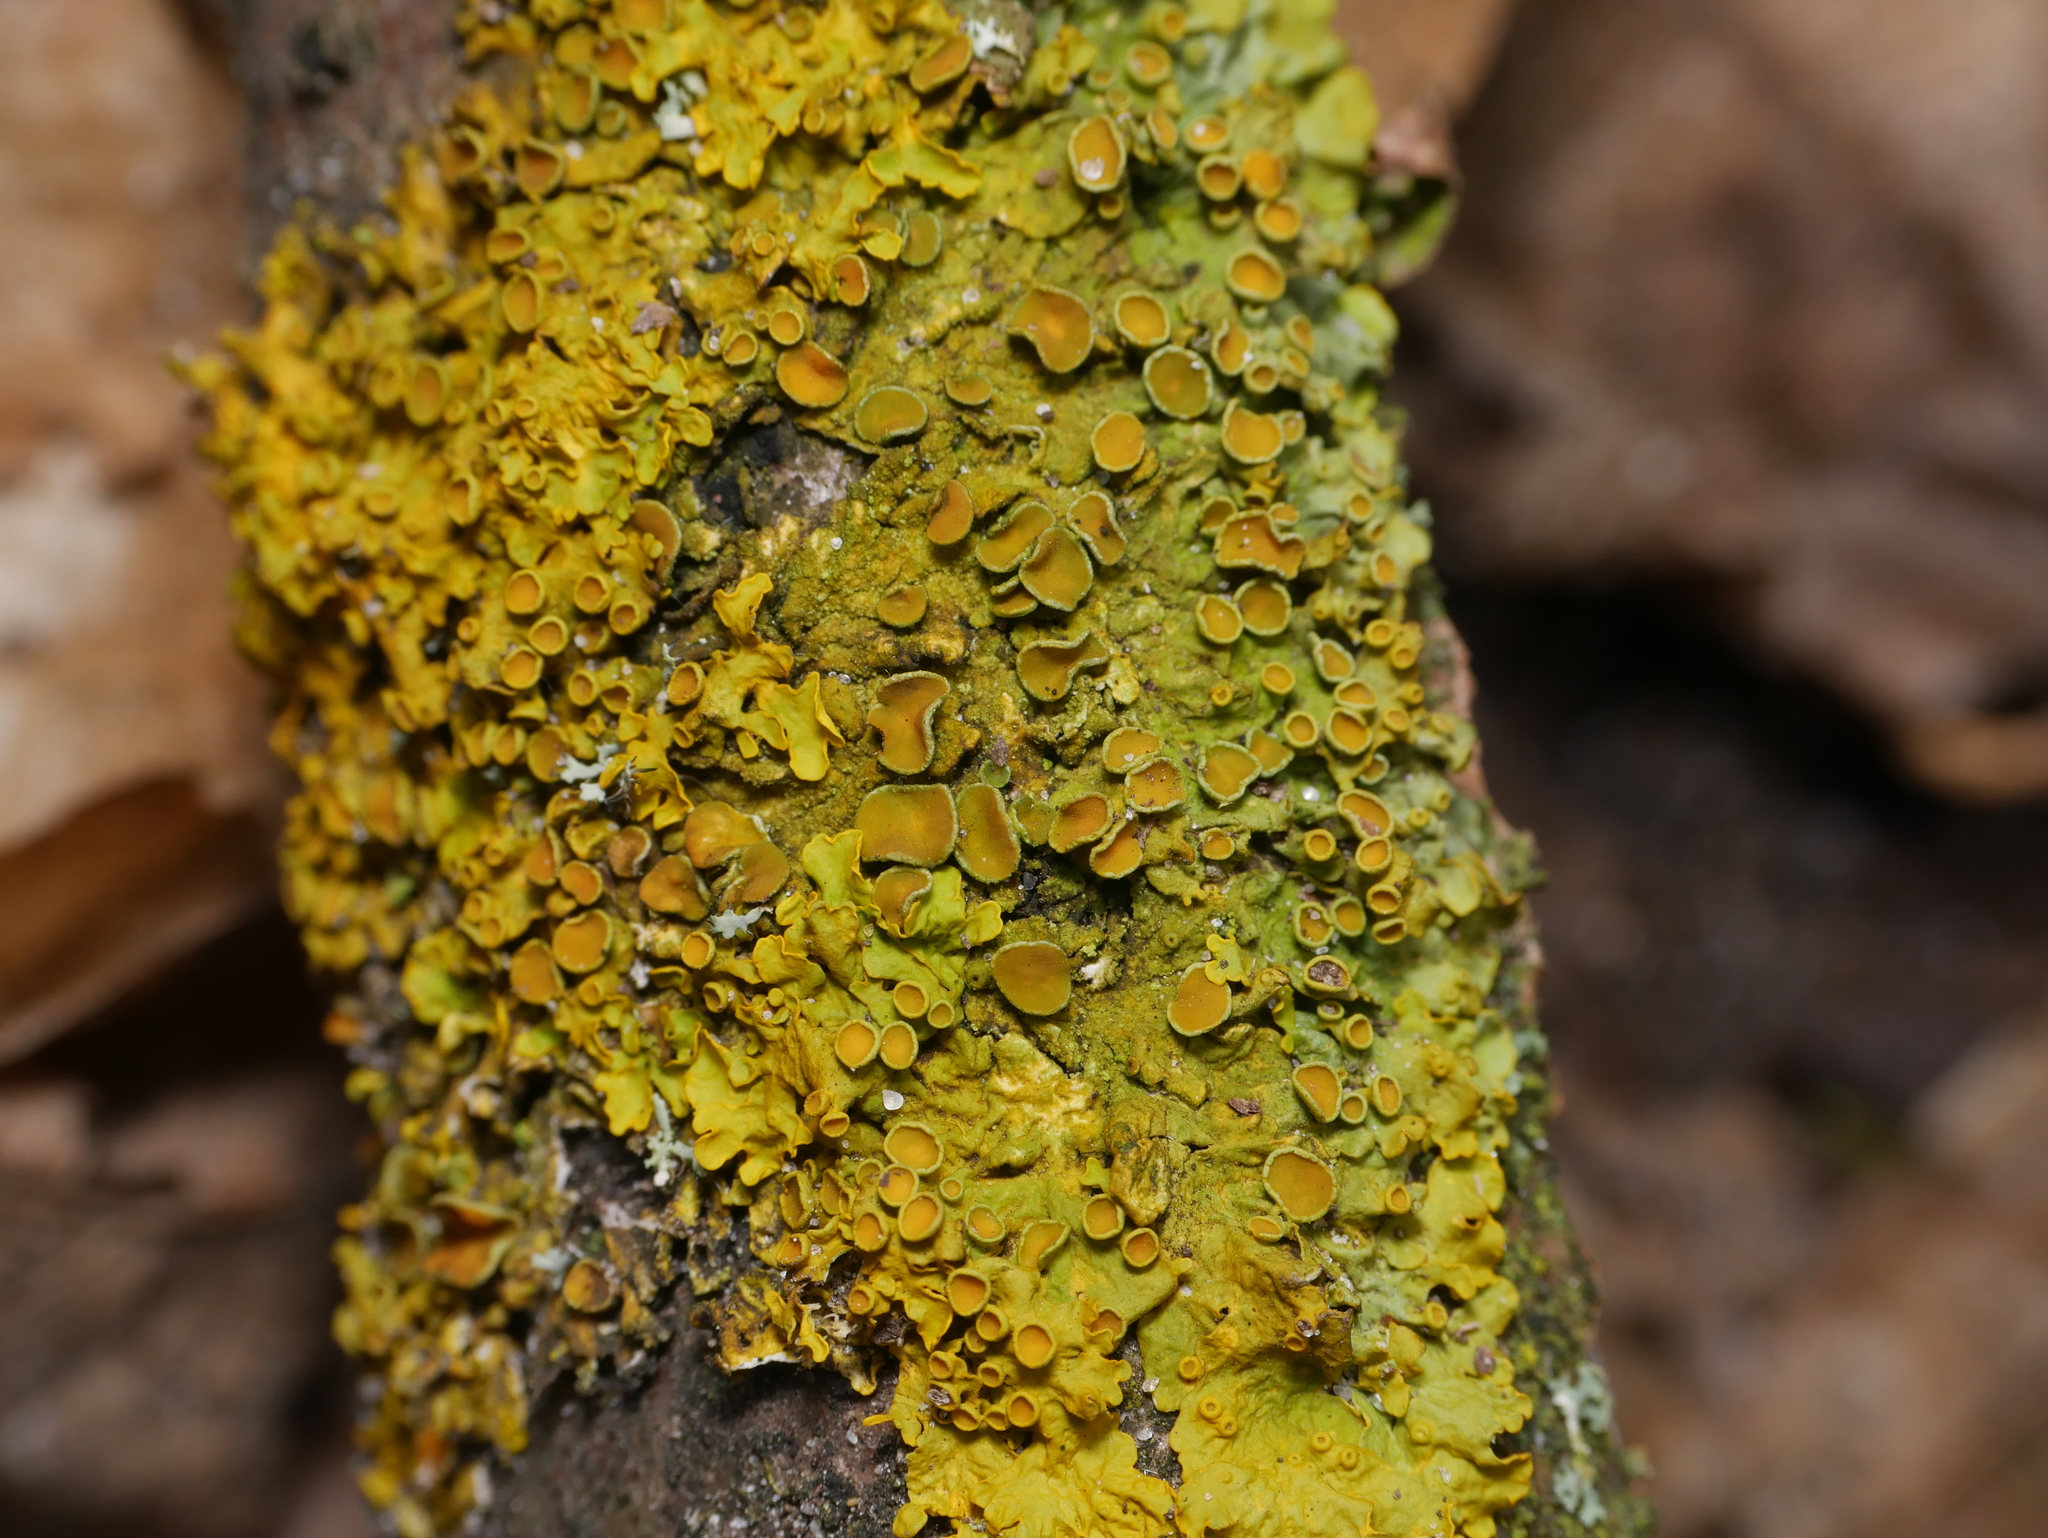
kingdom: Fungi
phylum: Ascomycota
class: Lecanoromycetes
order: Teloschistales
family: Teloschistaceae
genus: Xanthoria
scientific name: Xanthoria parietina
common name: Common orange lichen
